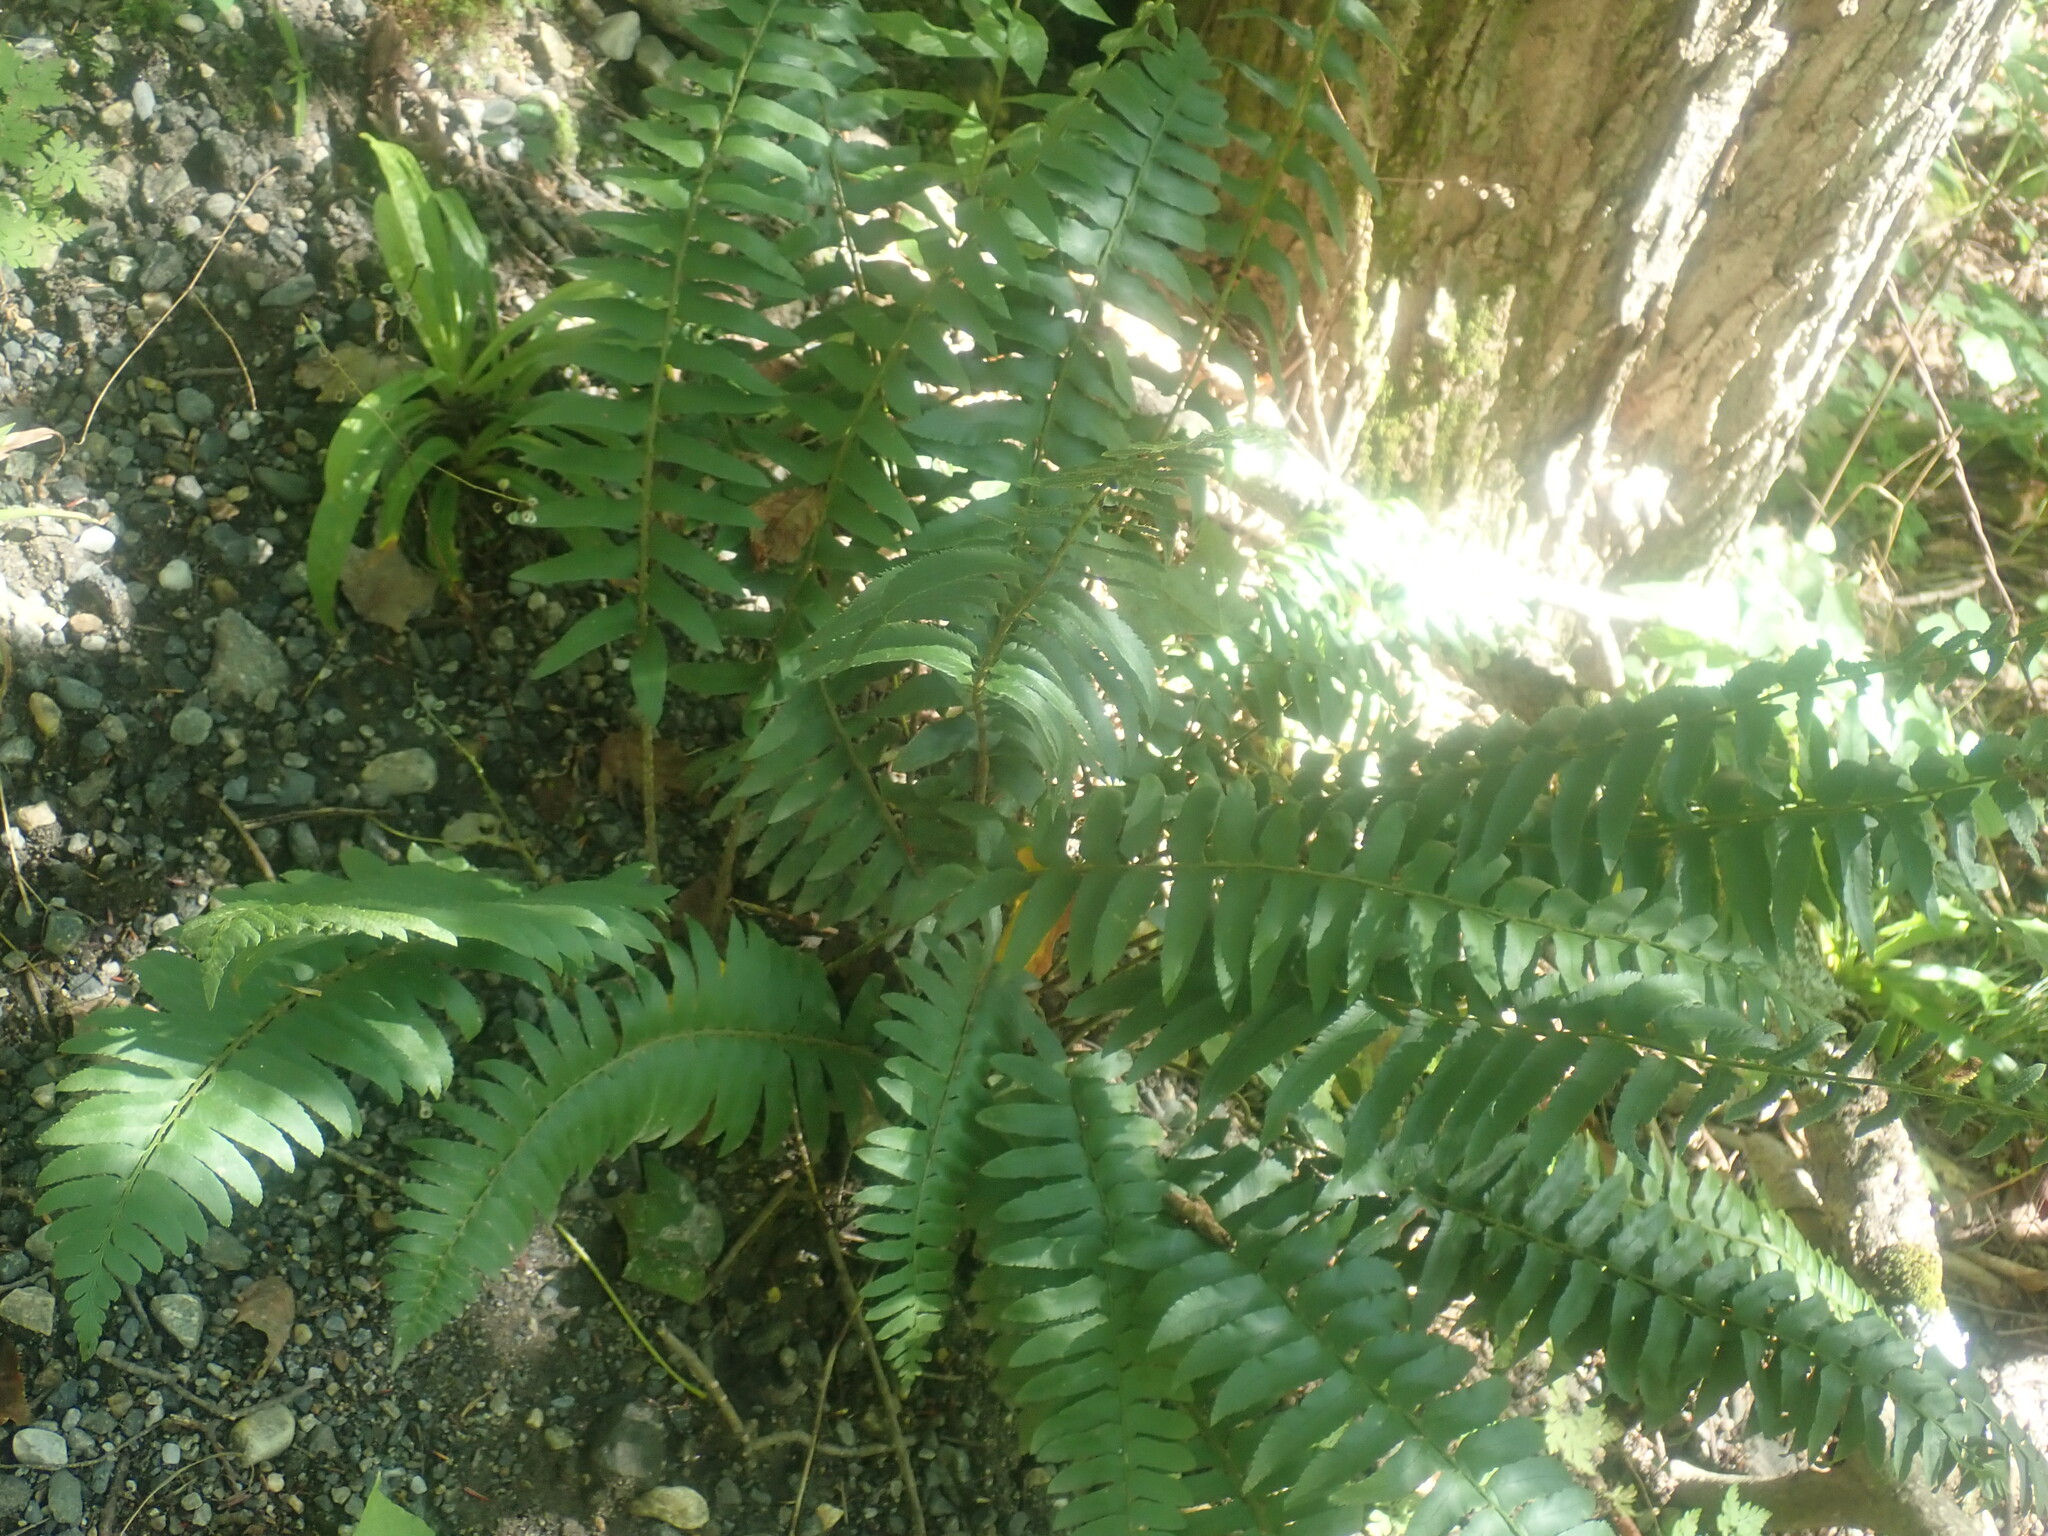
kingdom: Plantae
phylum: Tracheophyta
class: Polypodiopsida
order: Polypodiales
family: Dryopteridaceae
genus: Polystichum
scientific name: Polystichum acrostichoides
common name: Christmas fern
